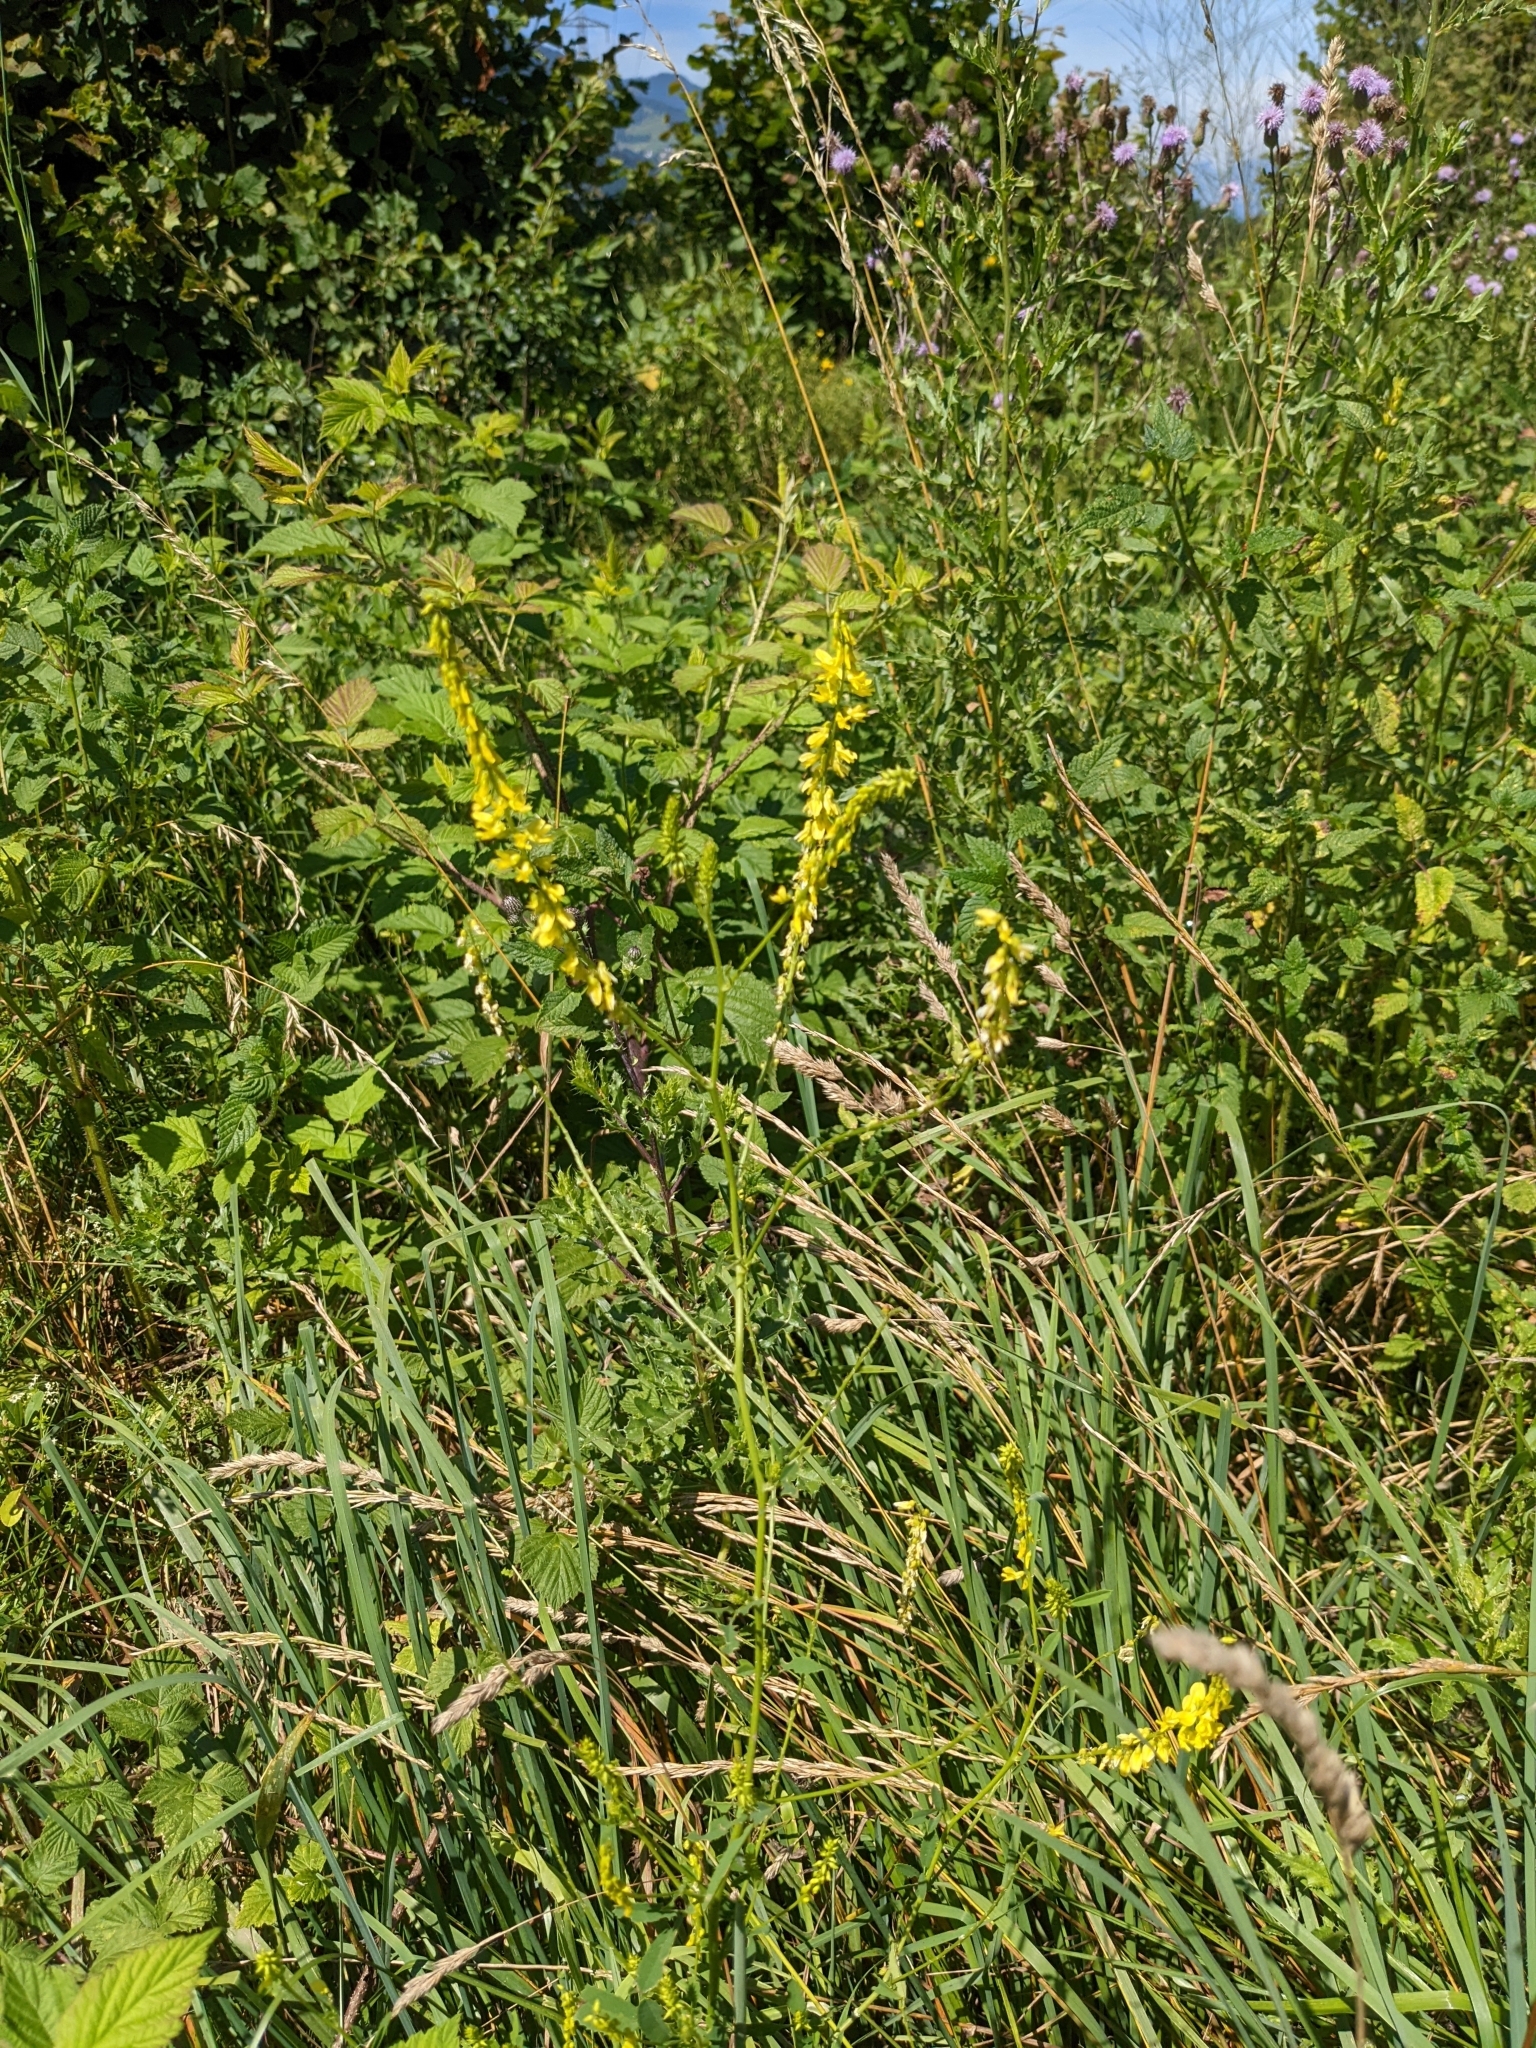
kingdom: Plantae
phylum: Tracheophyta
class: Magnoliopsida
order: Fabales
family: Fabaceae
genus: Melilotus
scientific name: Melilotus officinalis
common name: Sweetclover
